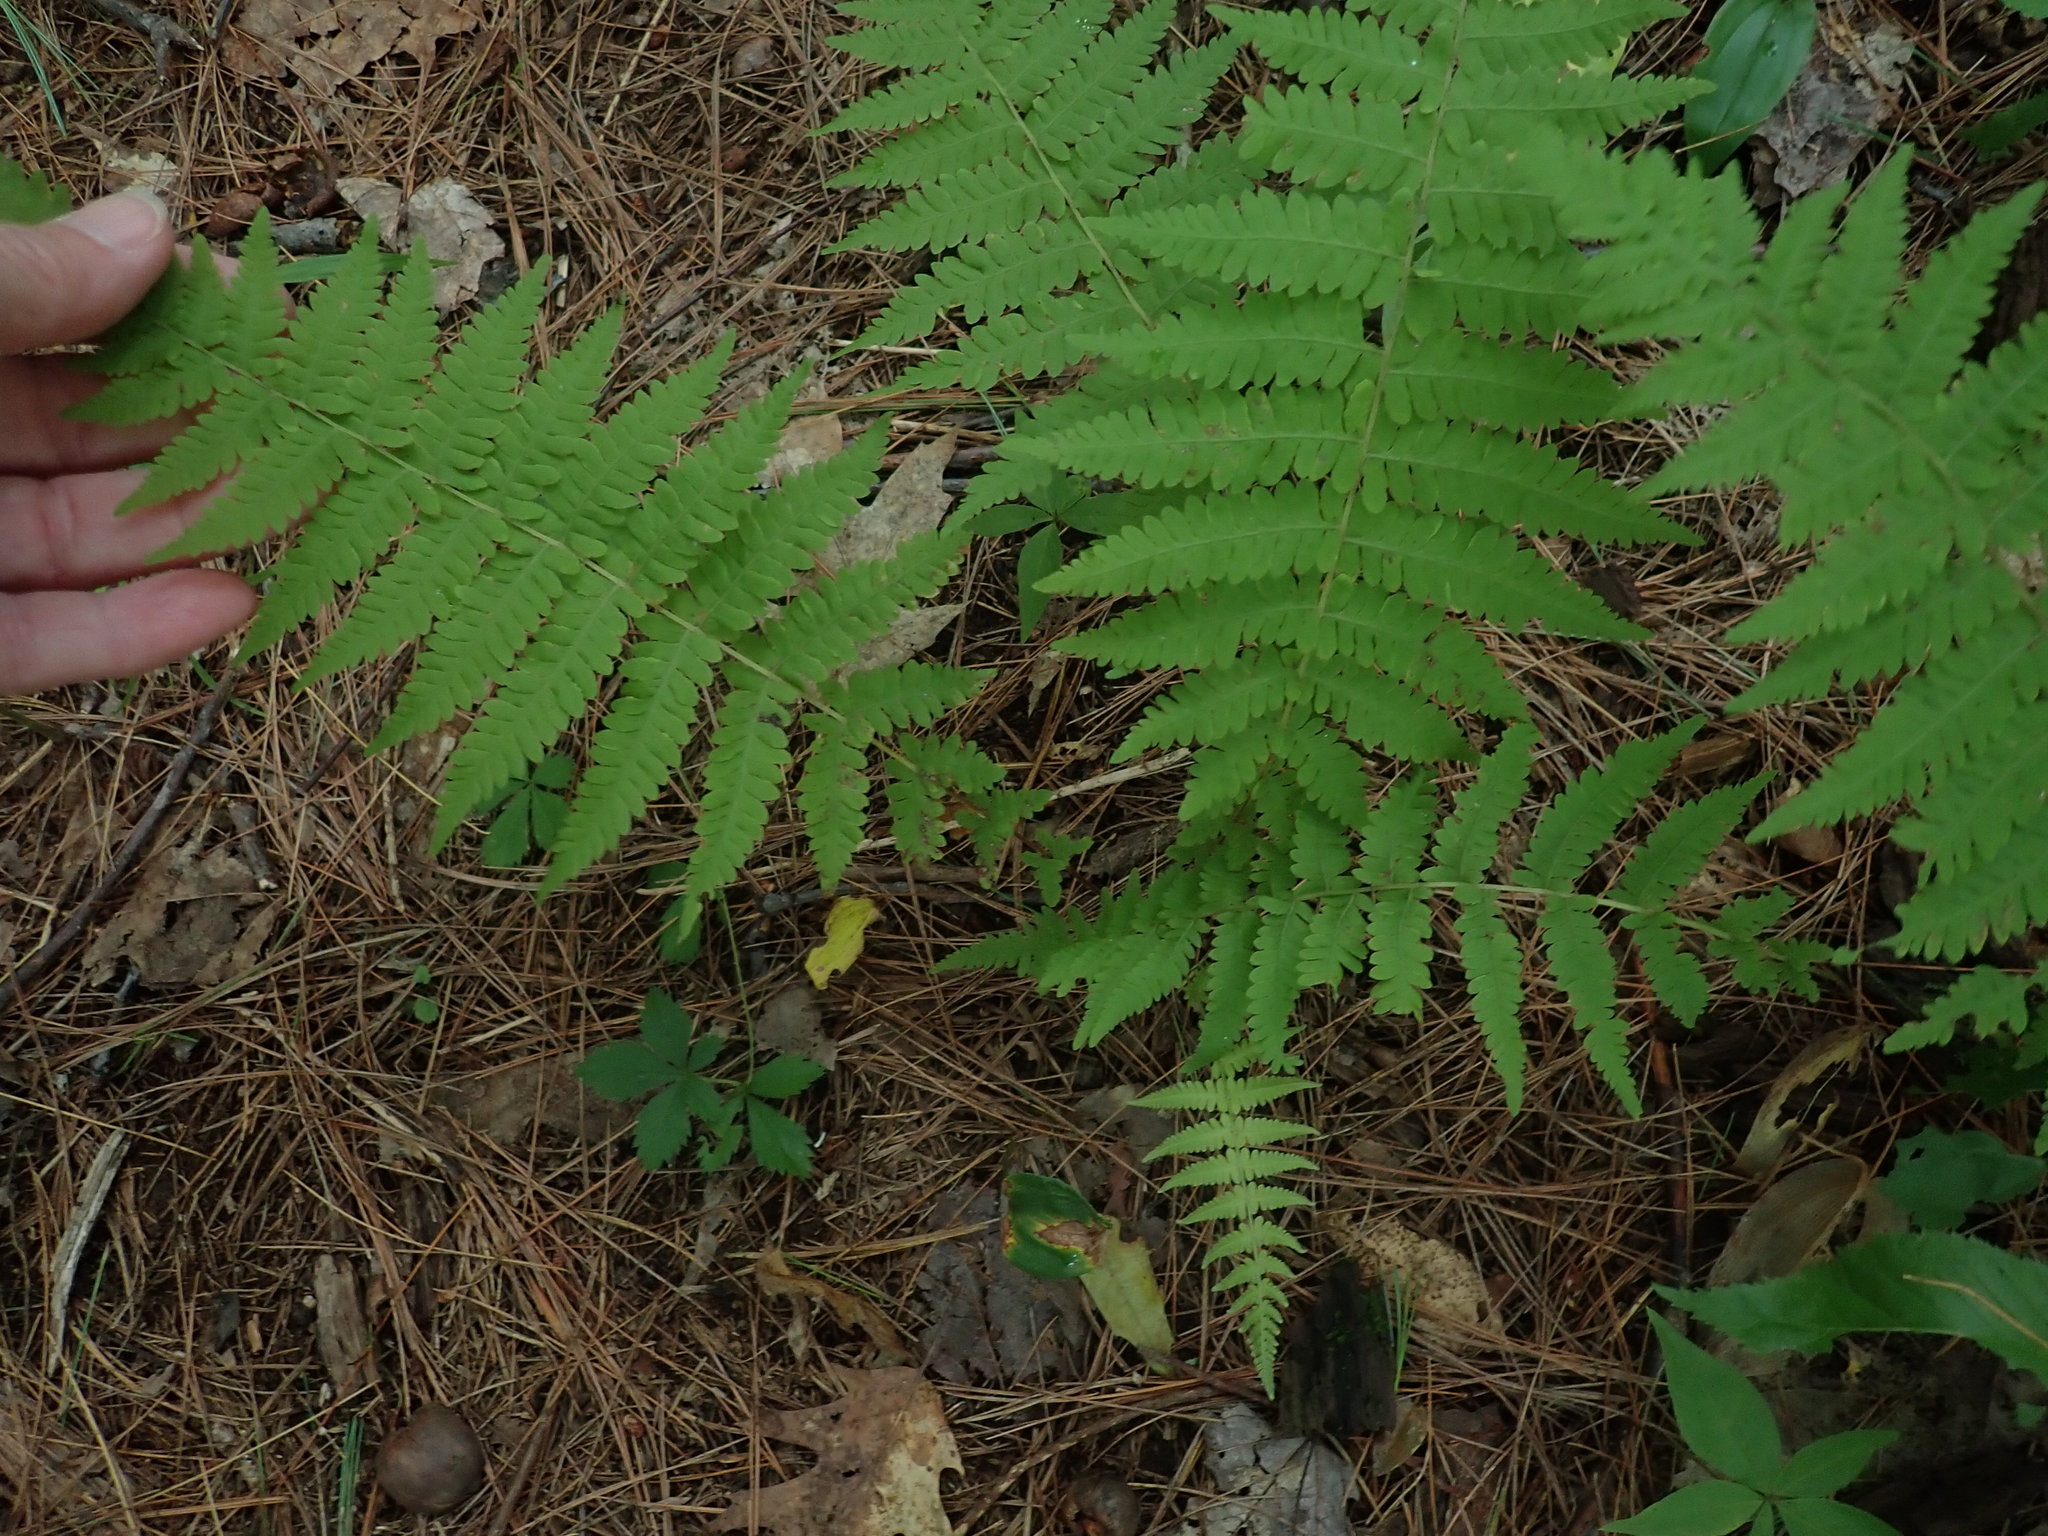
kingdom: Plantae
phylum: Tracheophyta
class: Polypodiopsida
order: Polypodiales
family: Thelypteridaceae
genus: Amauropelta
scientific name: Amauropelta noveboracensis
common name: New york fern
